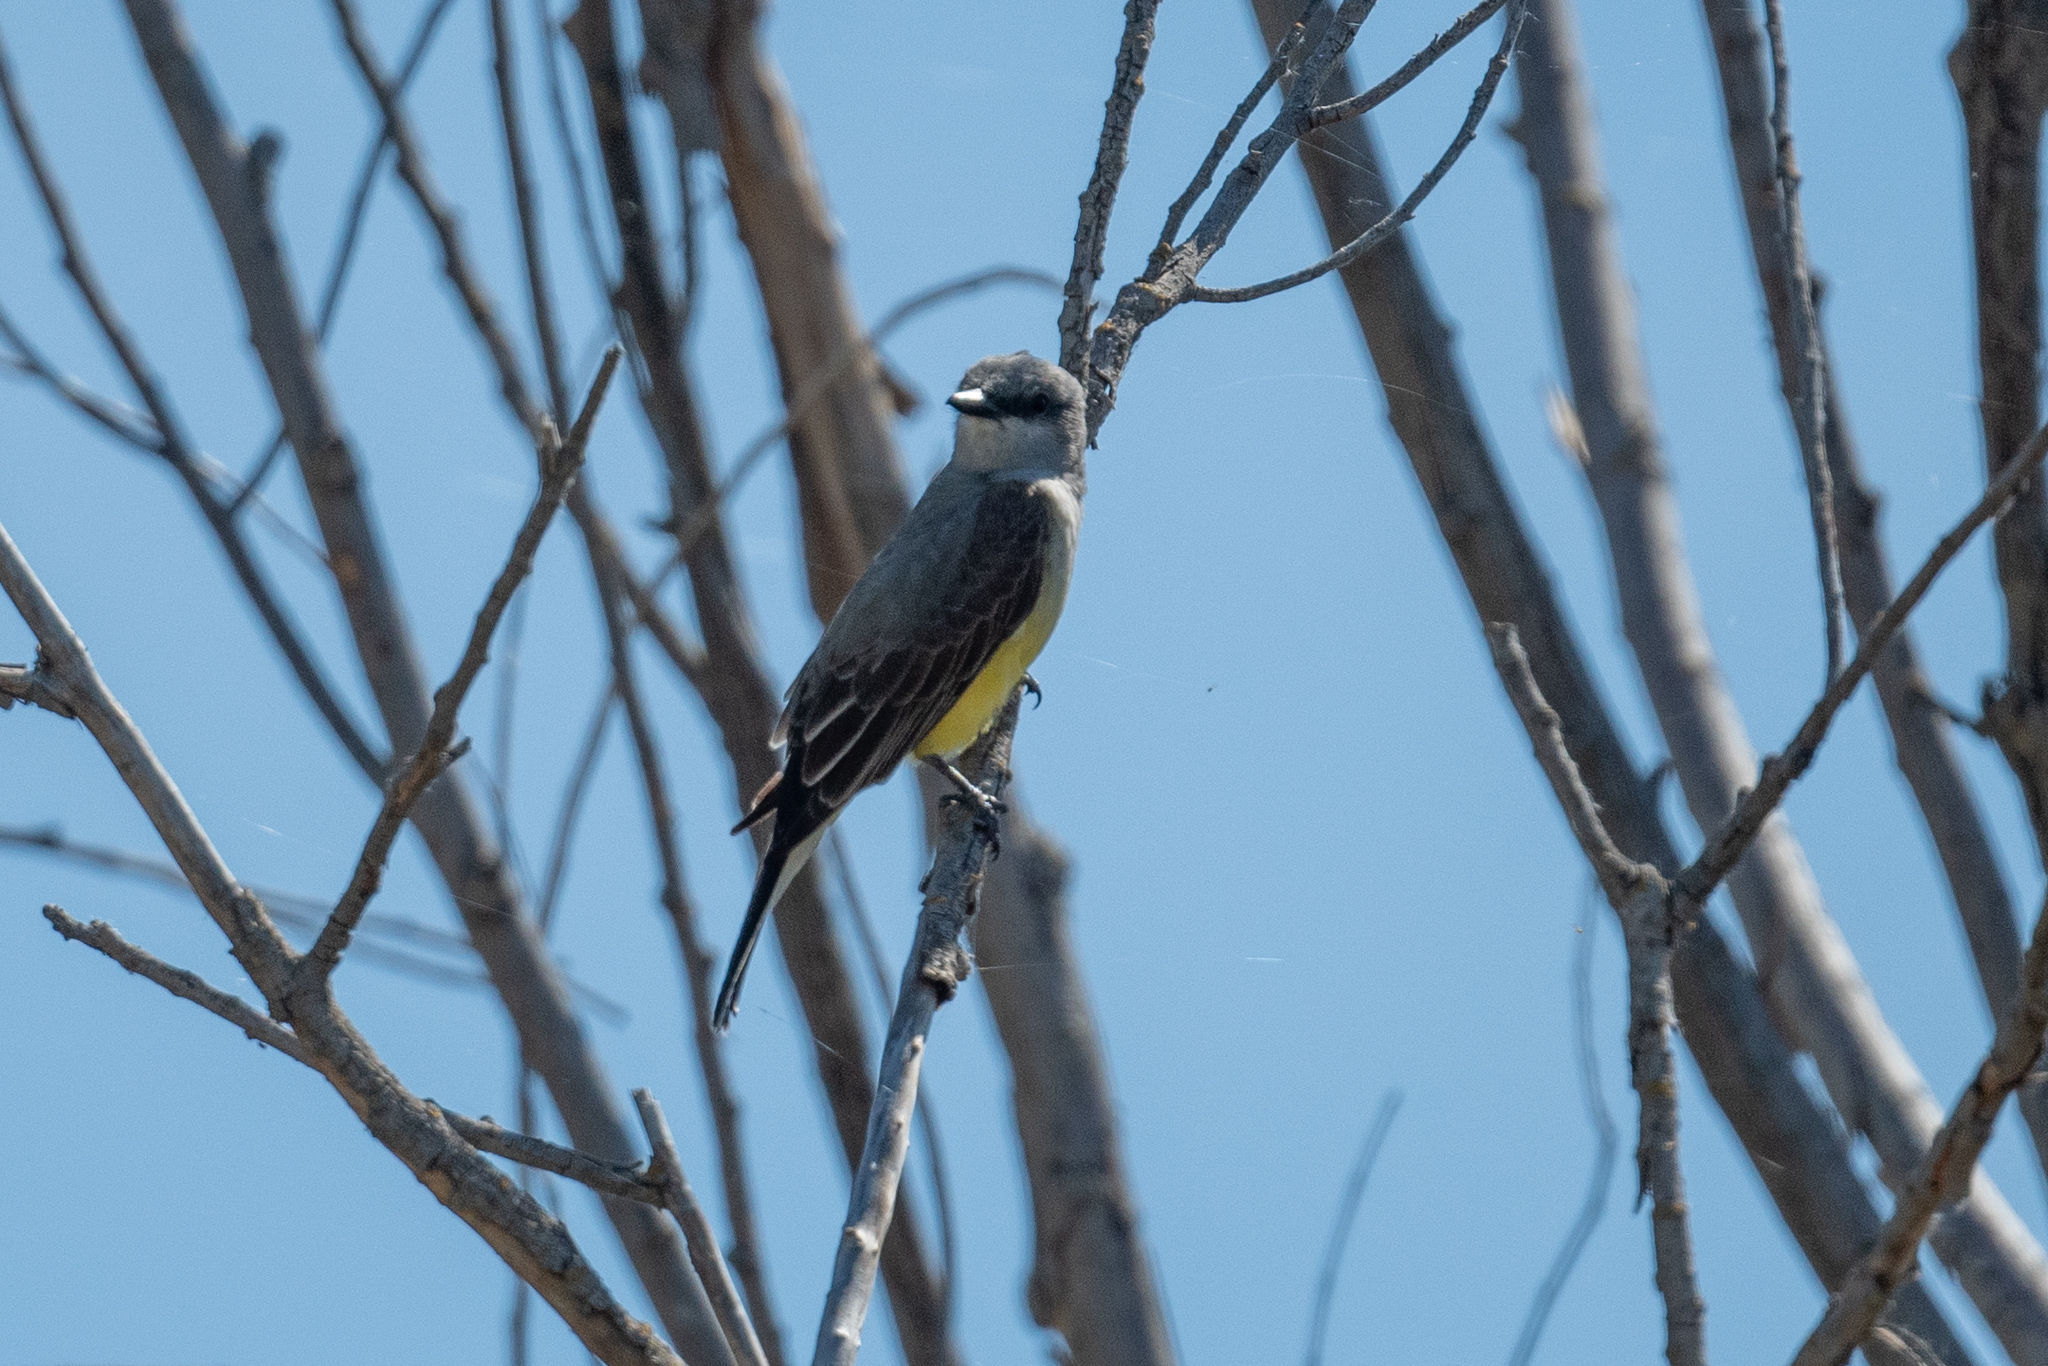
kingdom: Animalia
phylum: Chordata
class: Aves
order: Passeriformes
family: Tyrannidae
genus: Tyrannus
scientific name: Tyrannus verticalis
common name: Western kingbird
